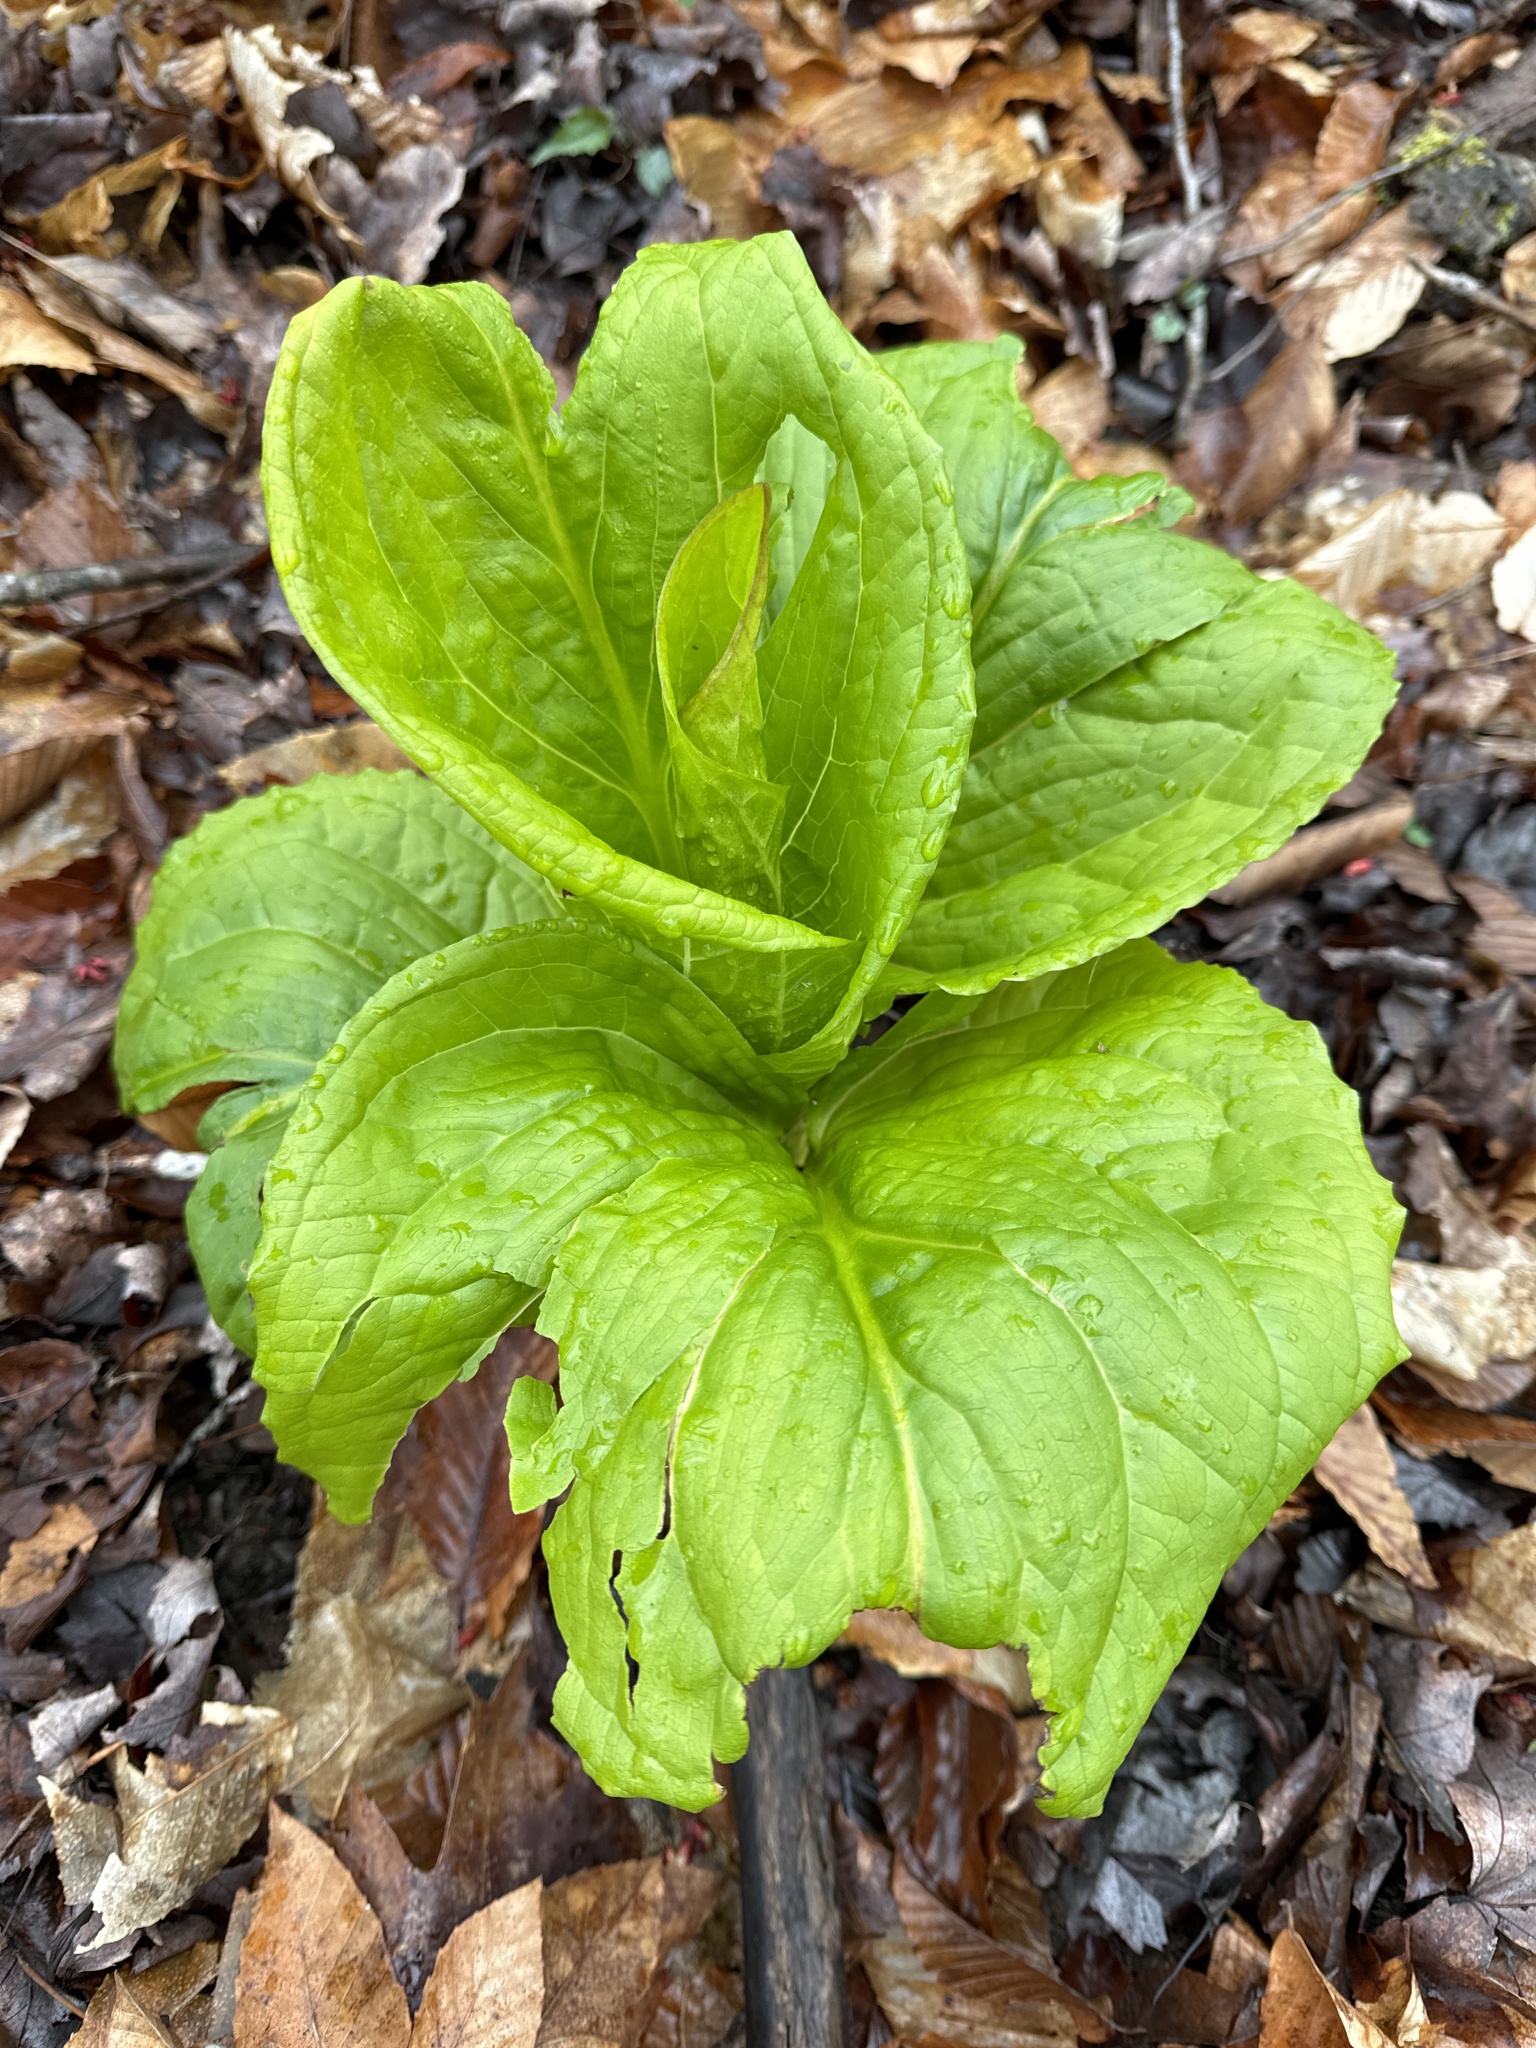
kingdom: Plantae
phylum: Tracheophyta
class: Liliopsida
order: Alismatales
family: Araceae
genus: Symplocarpus
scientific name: Symplocarpus foetidus
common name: Eastern skunk cabbage
